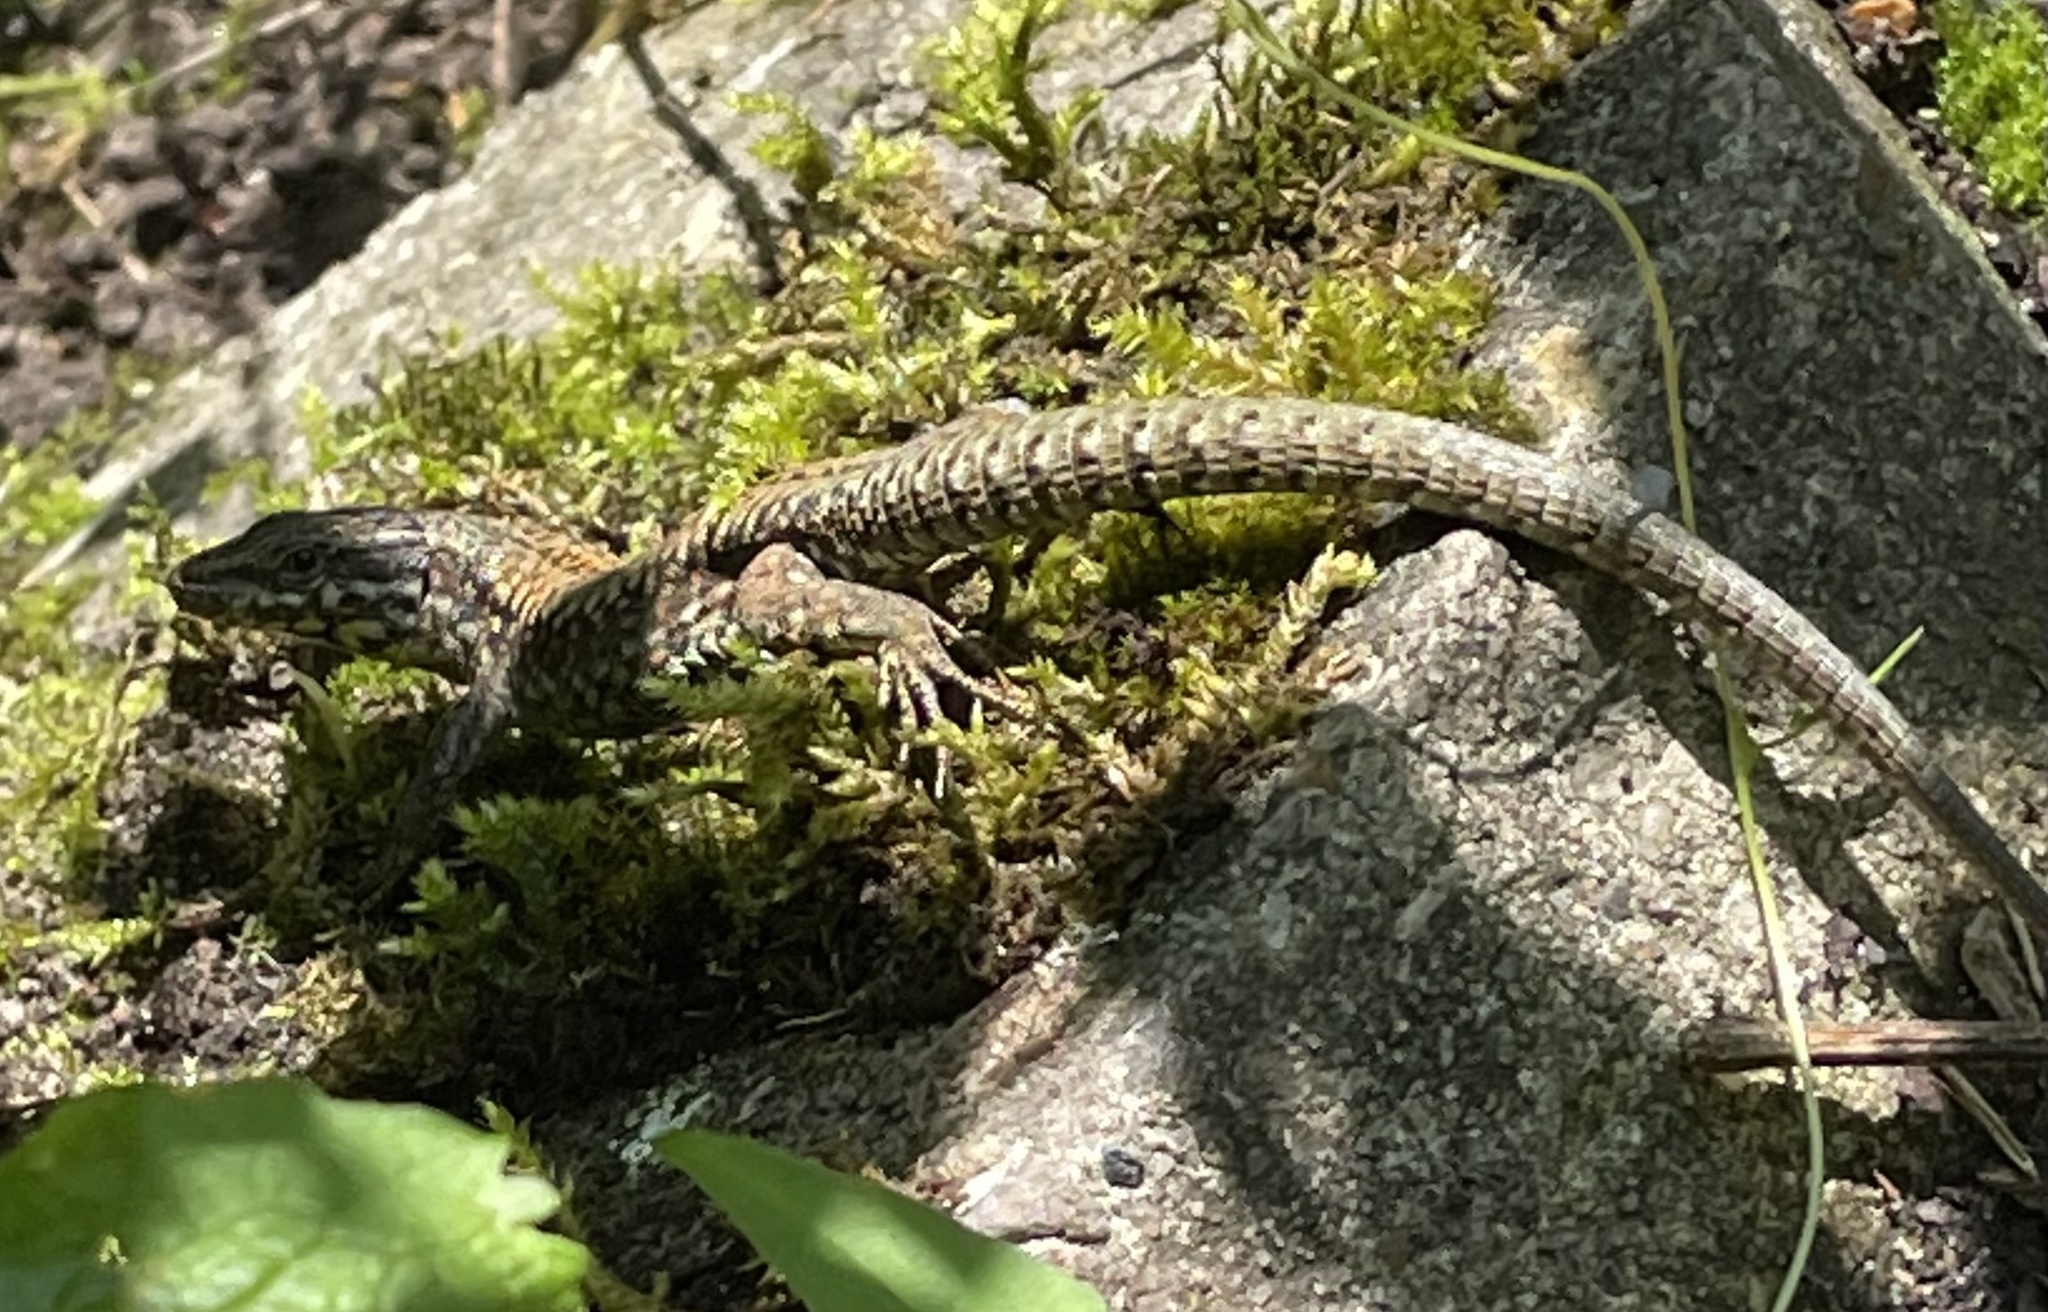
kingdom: Animalia
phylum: Chordata
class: Squamata
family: Lacertidae
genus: Podarcis
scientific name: Podarcis muralis
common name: Common wall lizard
